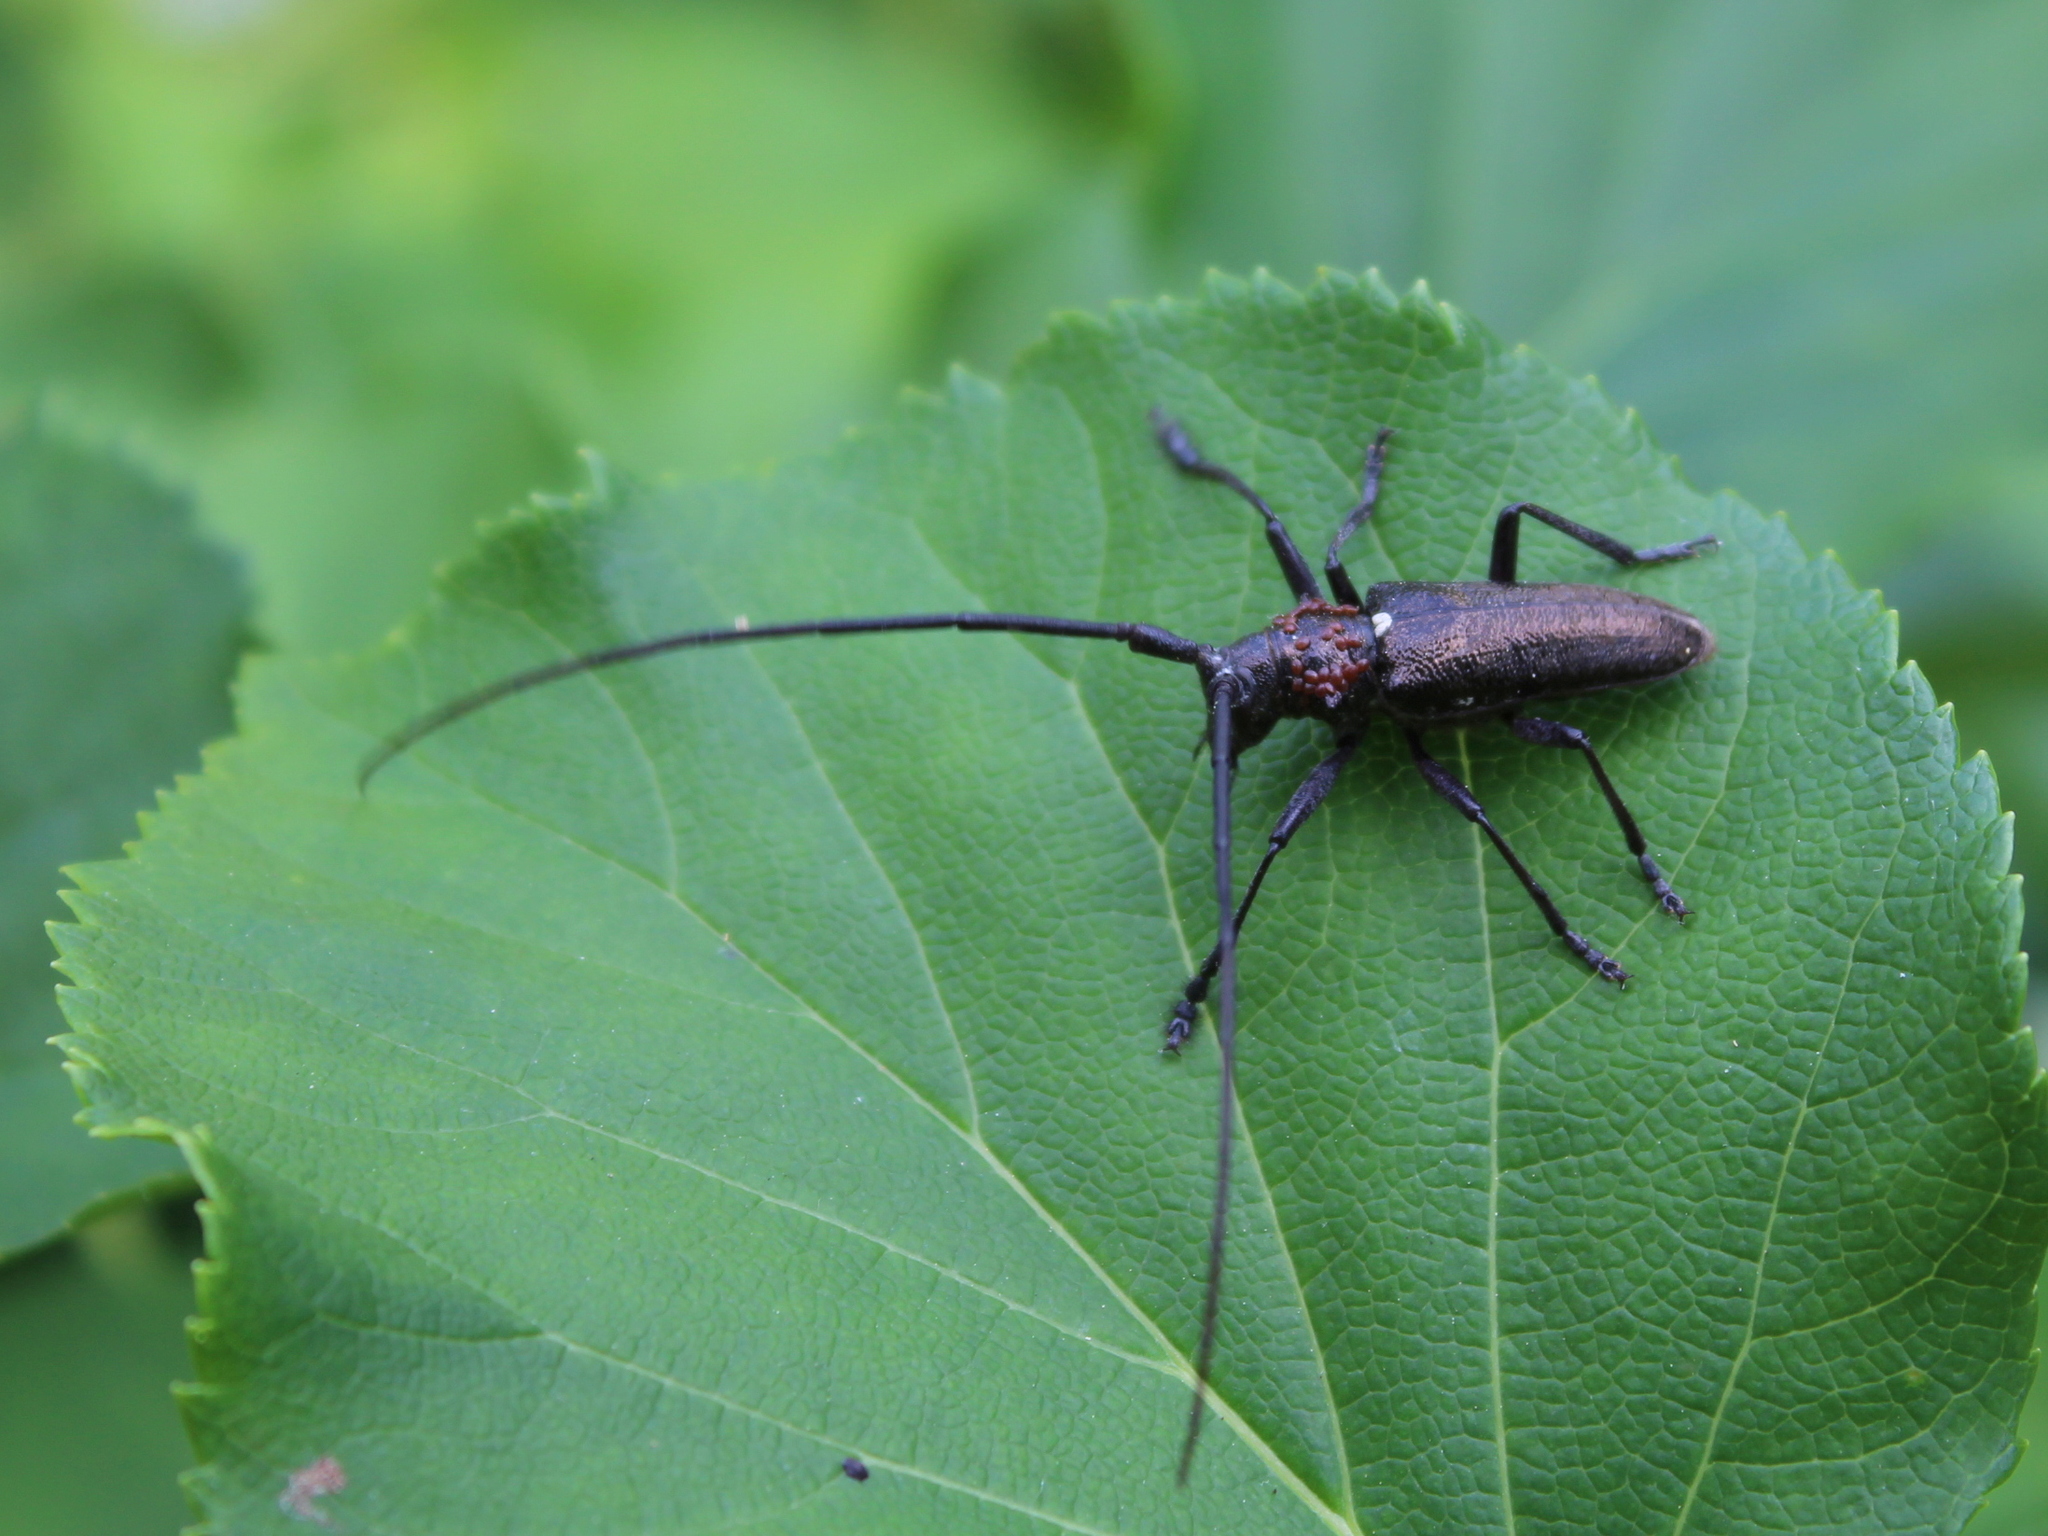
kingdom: Animalia
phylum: Arthropoda
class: Insecta
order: Coleoptera
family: Cerambycidae
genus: Monochamus
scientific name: Monochamus scutellatus
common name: White-spotted sawyer beetle
